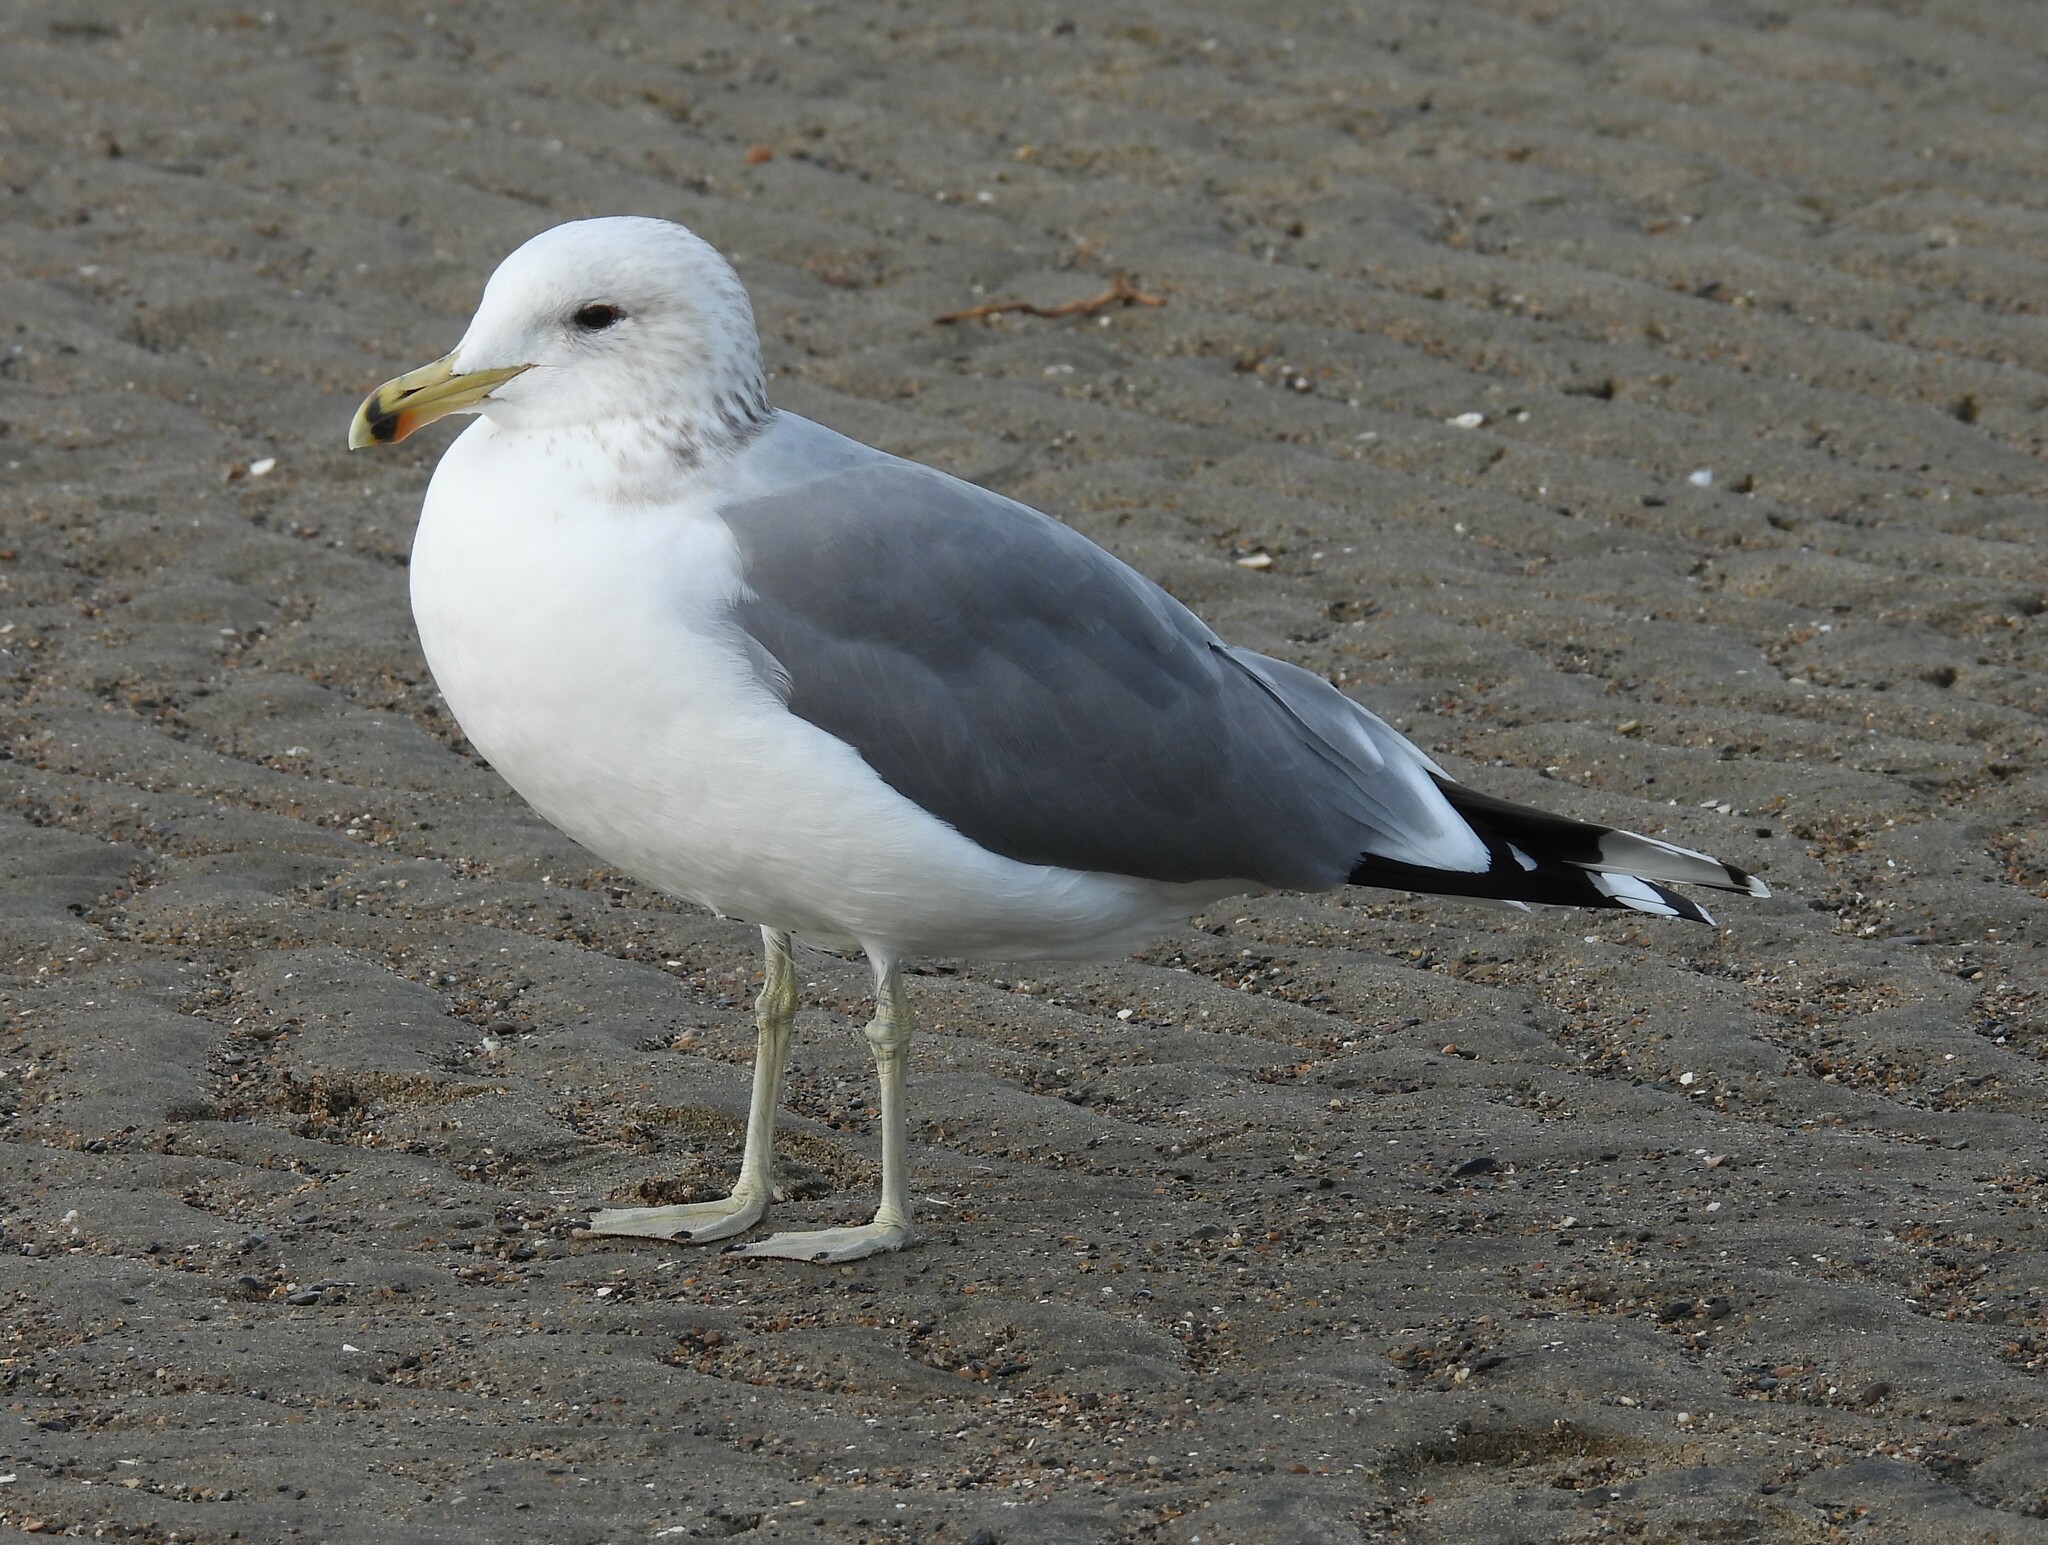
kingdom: Animalia
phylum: Chordata
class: Aves
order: Charadriiformes
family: Laridae
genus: Larus
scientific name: Larus californicus
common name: California gull
